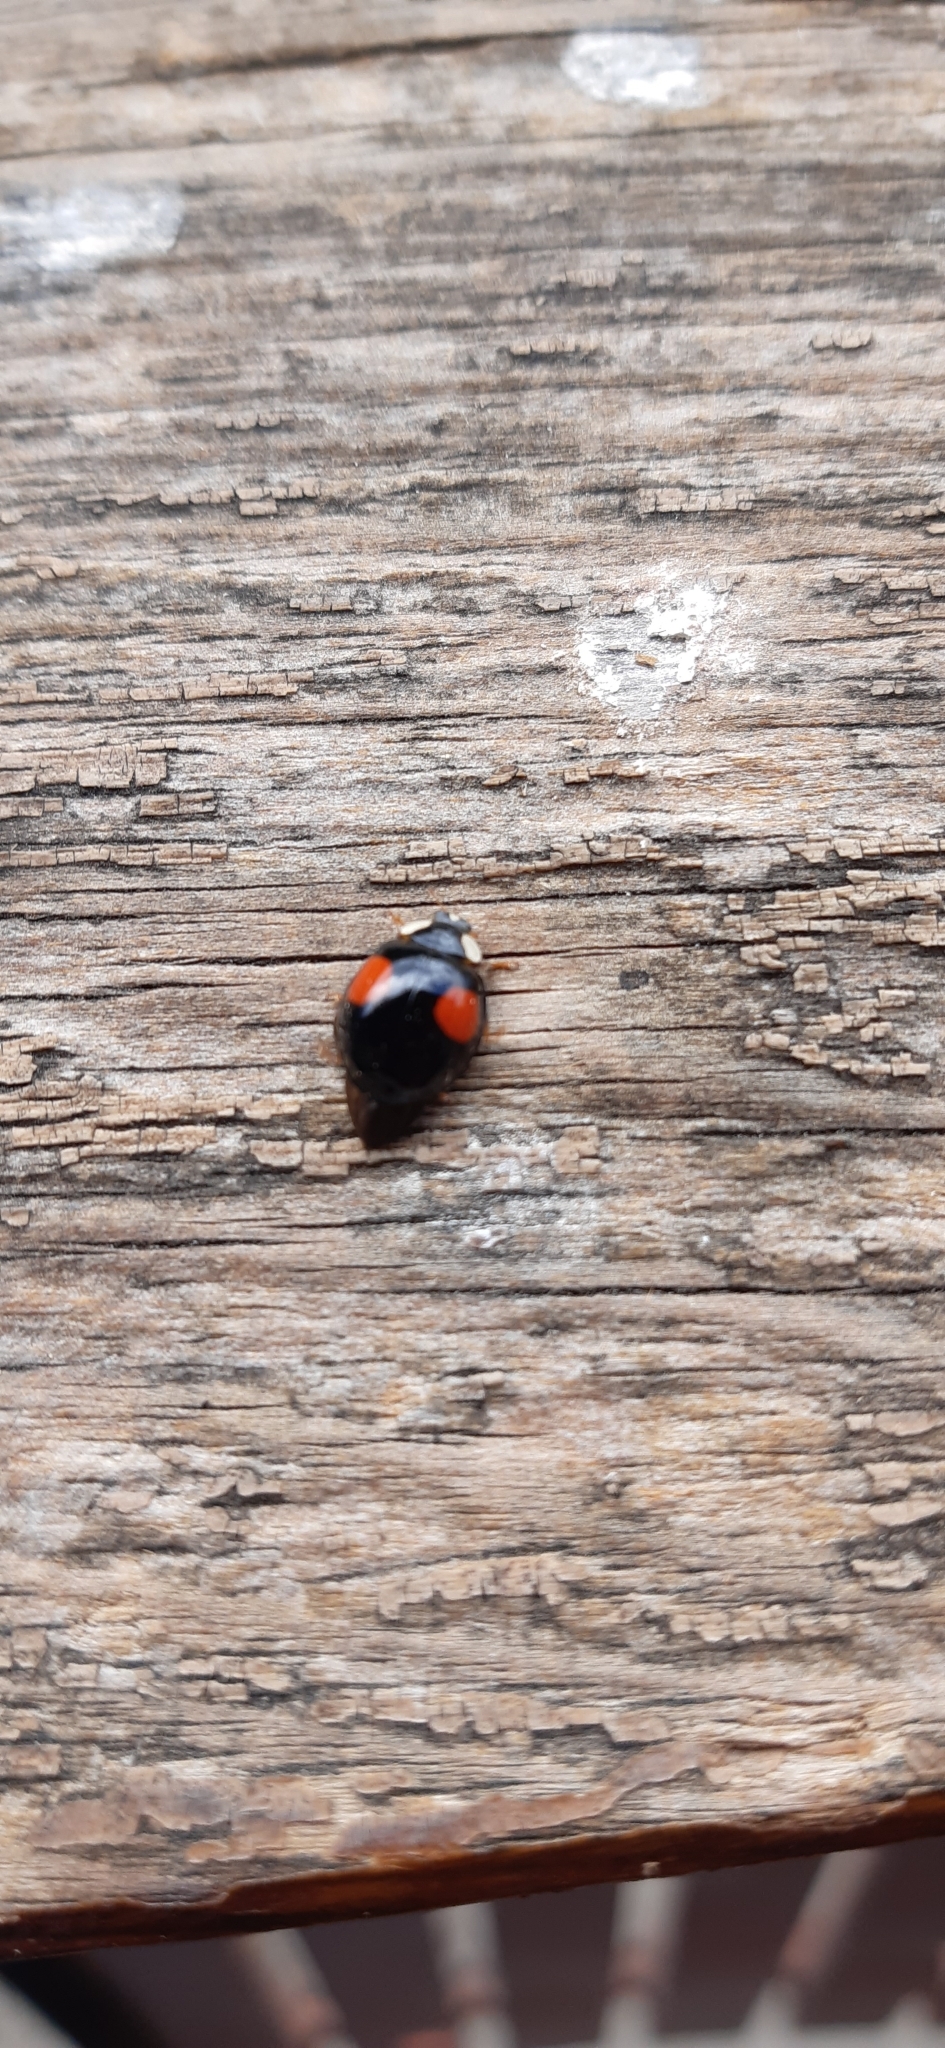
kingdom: Animalia
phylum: Arthropoda
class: Insecta
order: Coleoptera
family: Coccinellidae
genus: Harmonia
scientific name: Harmonia axyridis
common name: Harlequin ladybird
